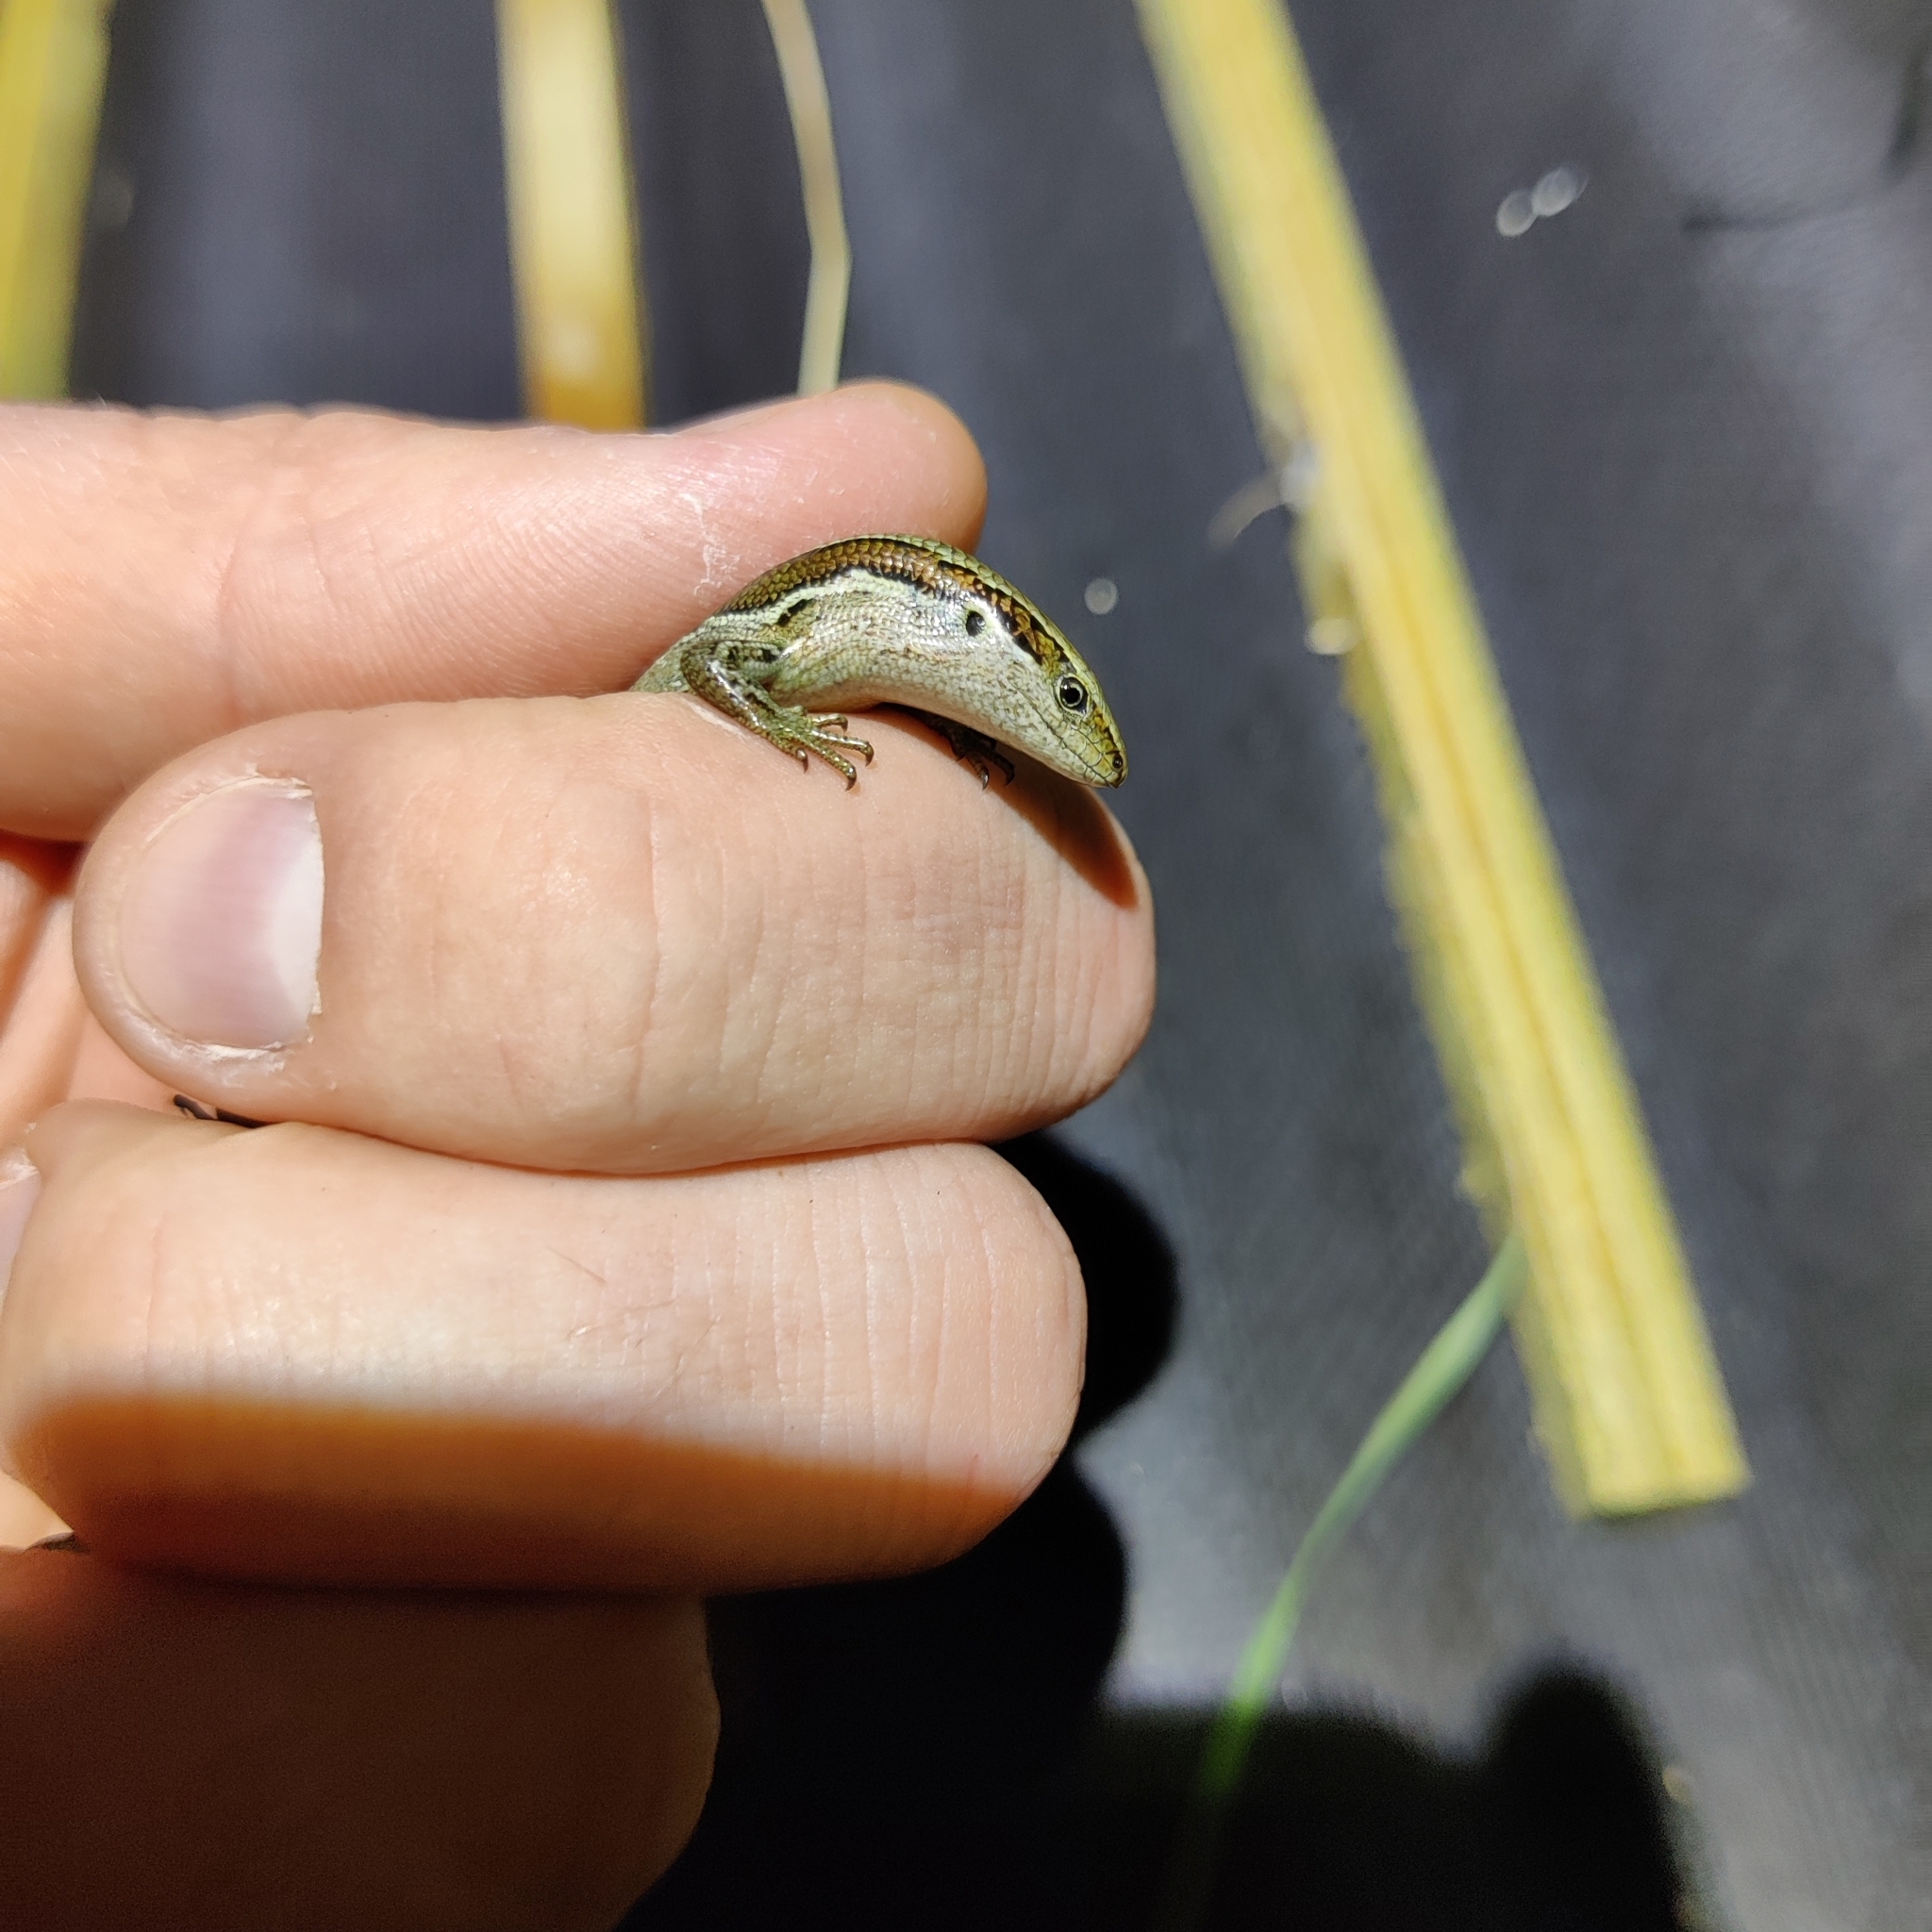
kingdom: Animalia
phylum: Chordata
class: Squamata
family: Scincidae
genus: Oligosoma
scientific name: Oligosoma polychroma
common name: Common new zealand skink
